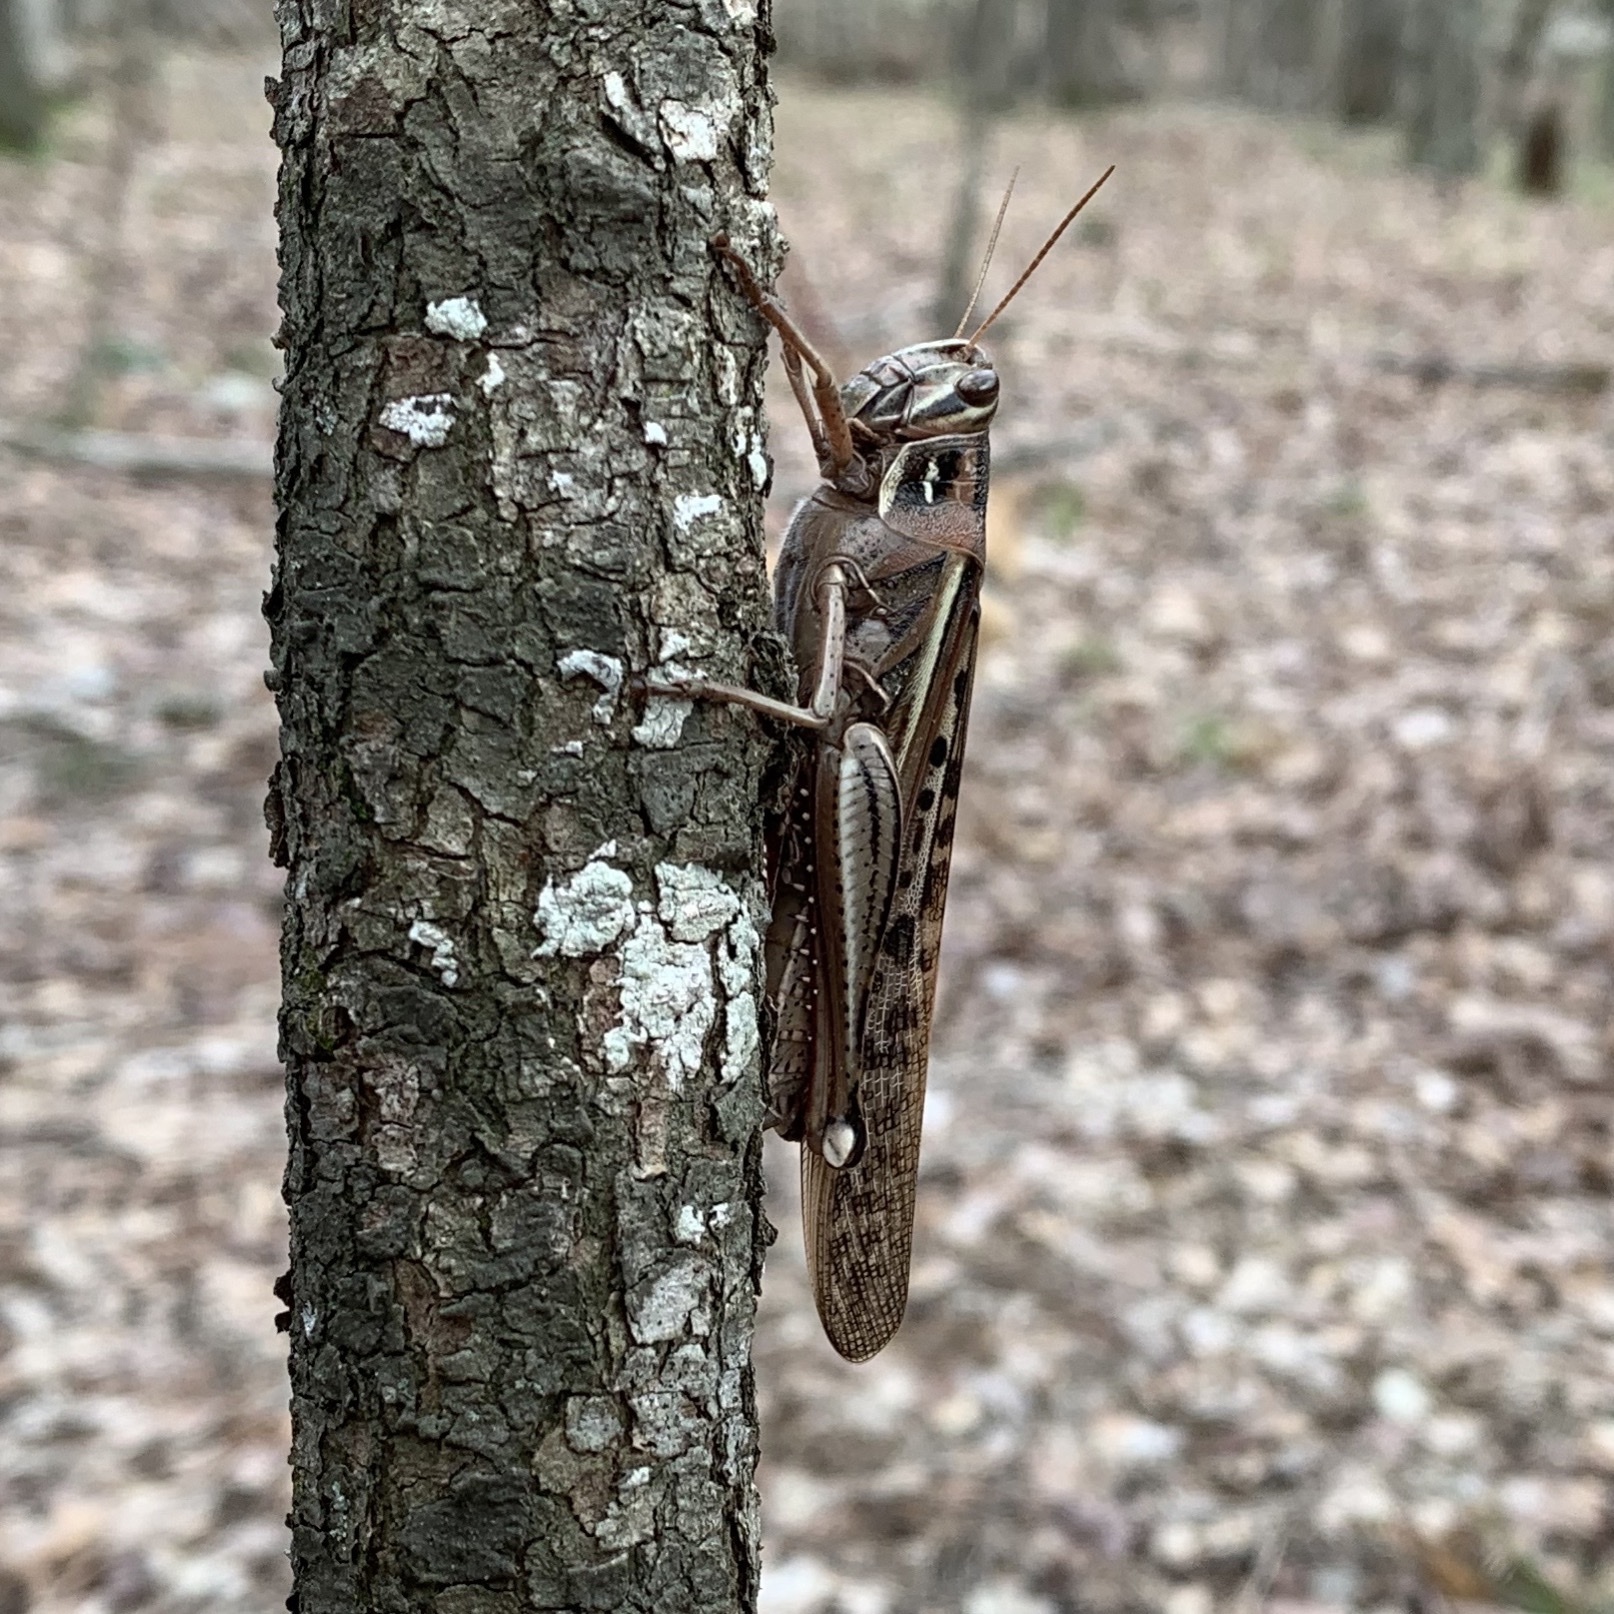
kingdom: Animalia
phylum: Arthropoda
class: Insecta
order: Orthoptera
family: Acrididae
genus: Schistocerca
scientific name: Schistocerca americana
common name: American bird locust
